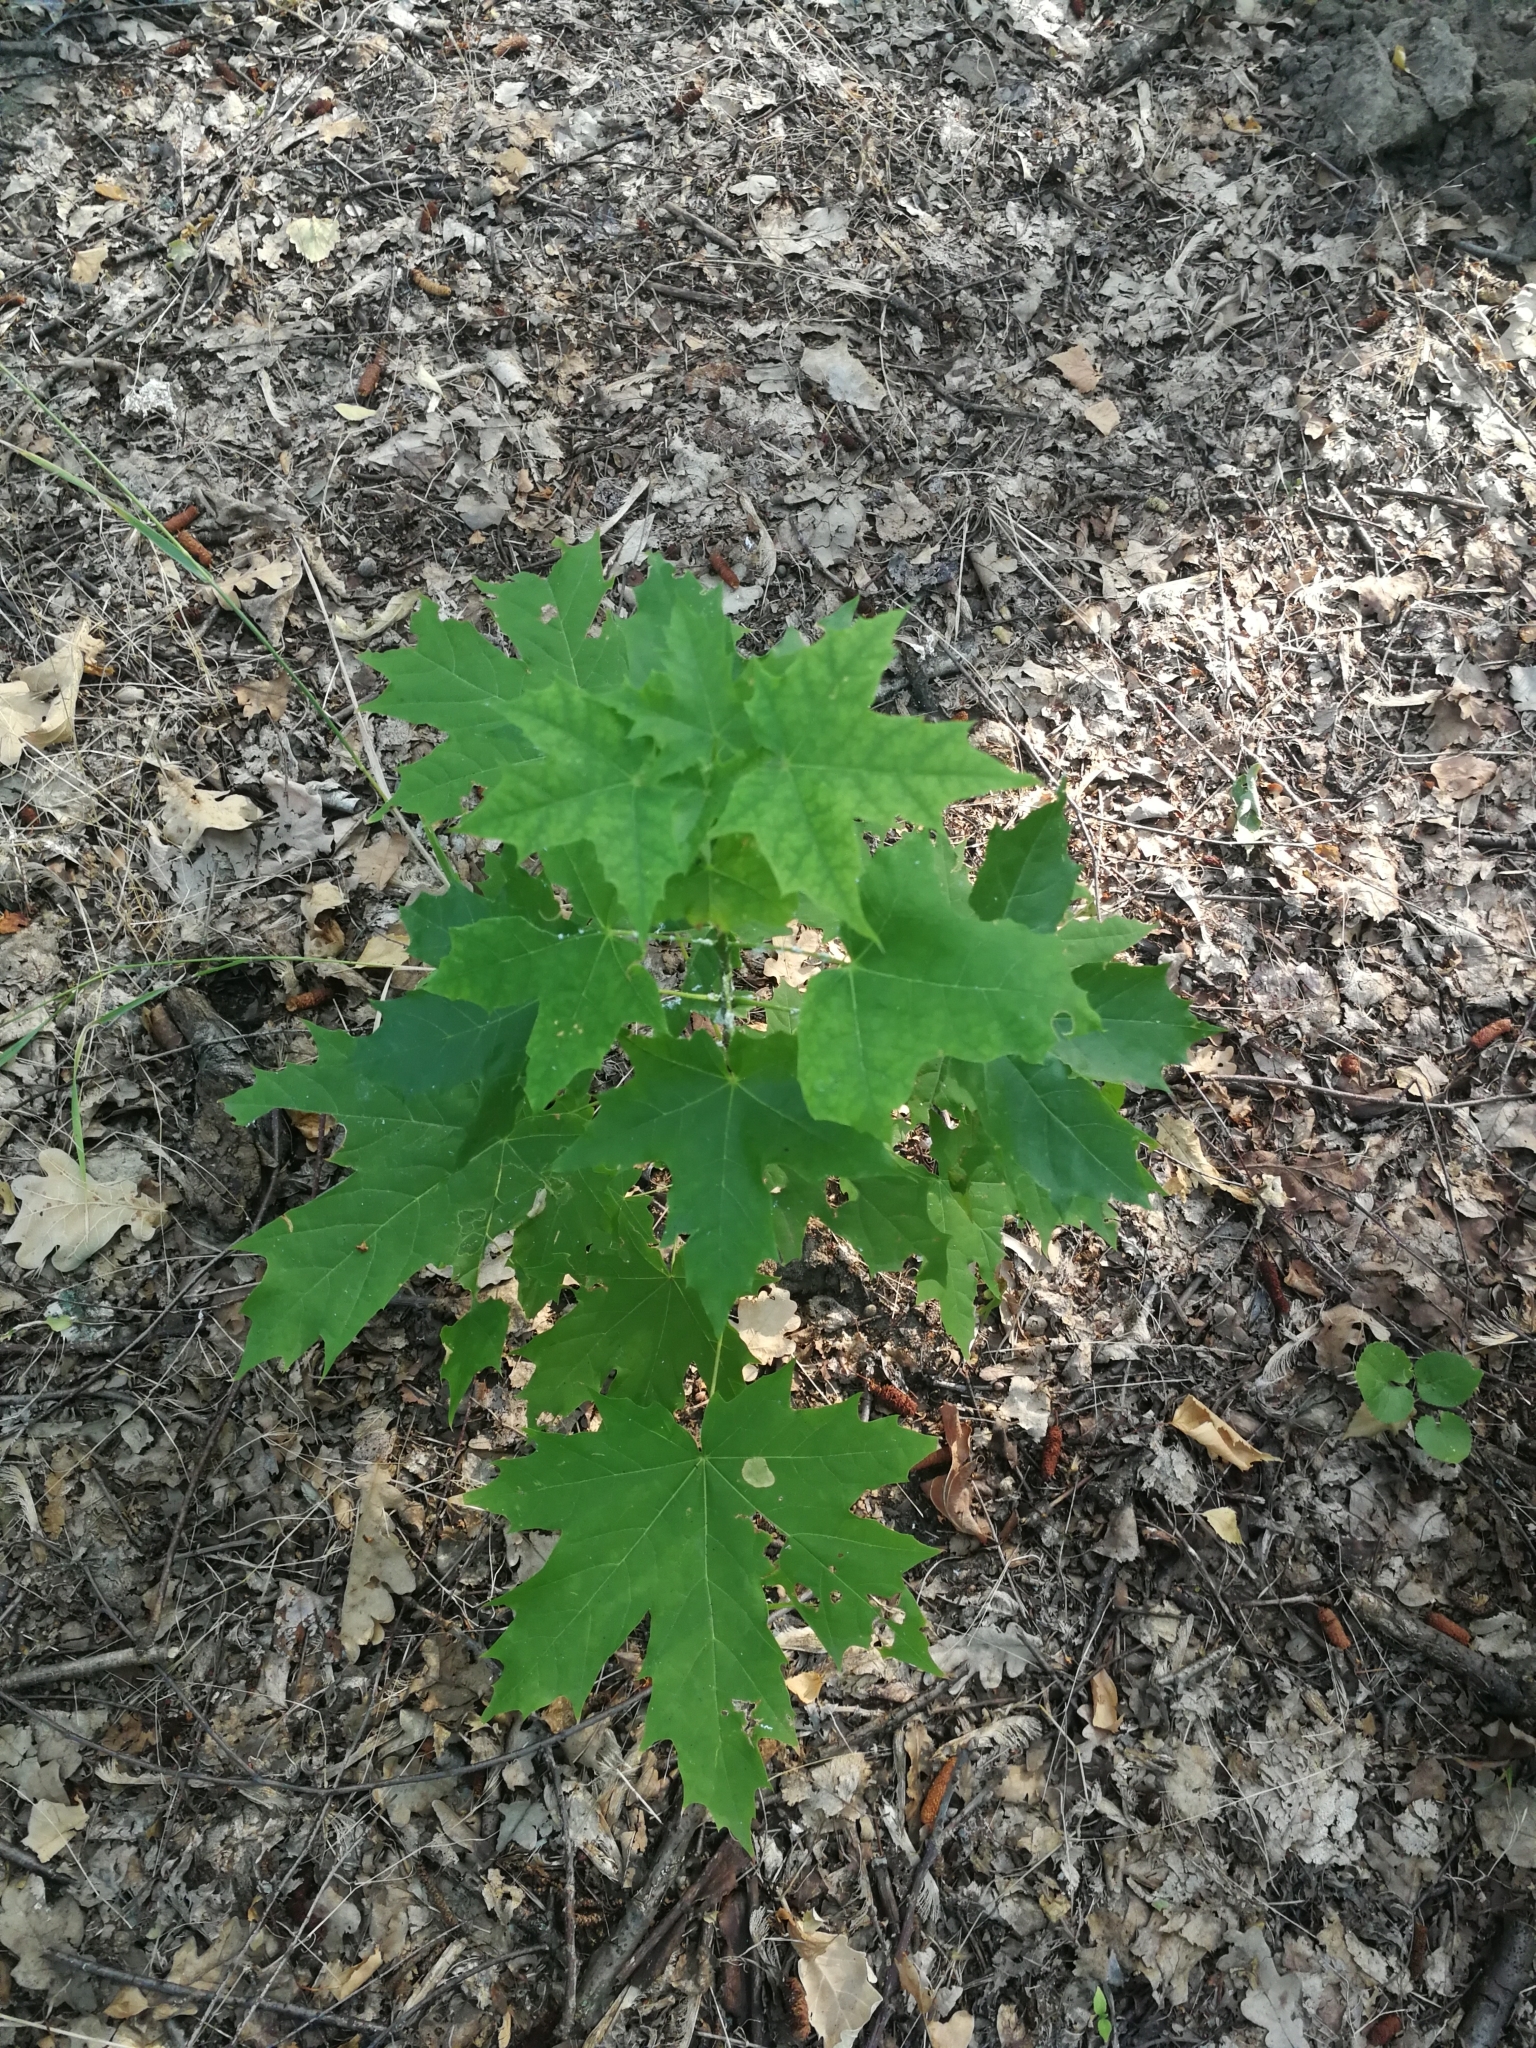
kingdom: Plantae
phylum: Tracheophyta
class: Magnoliopsida
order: Sapindales
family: Sapindaceae
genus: Acer
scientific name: Acer platanoides
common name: Norway maple
